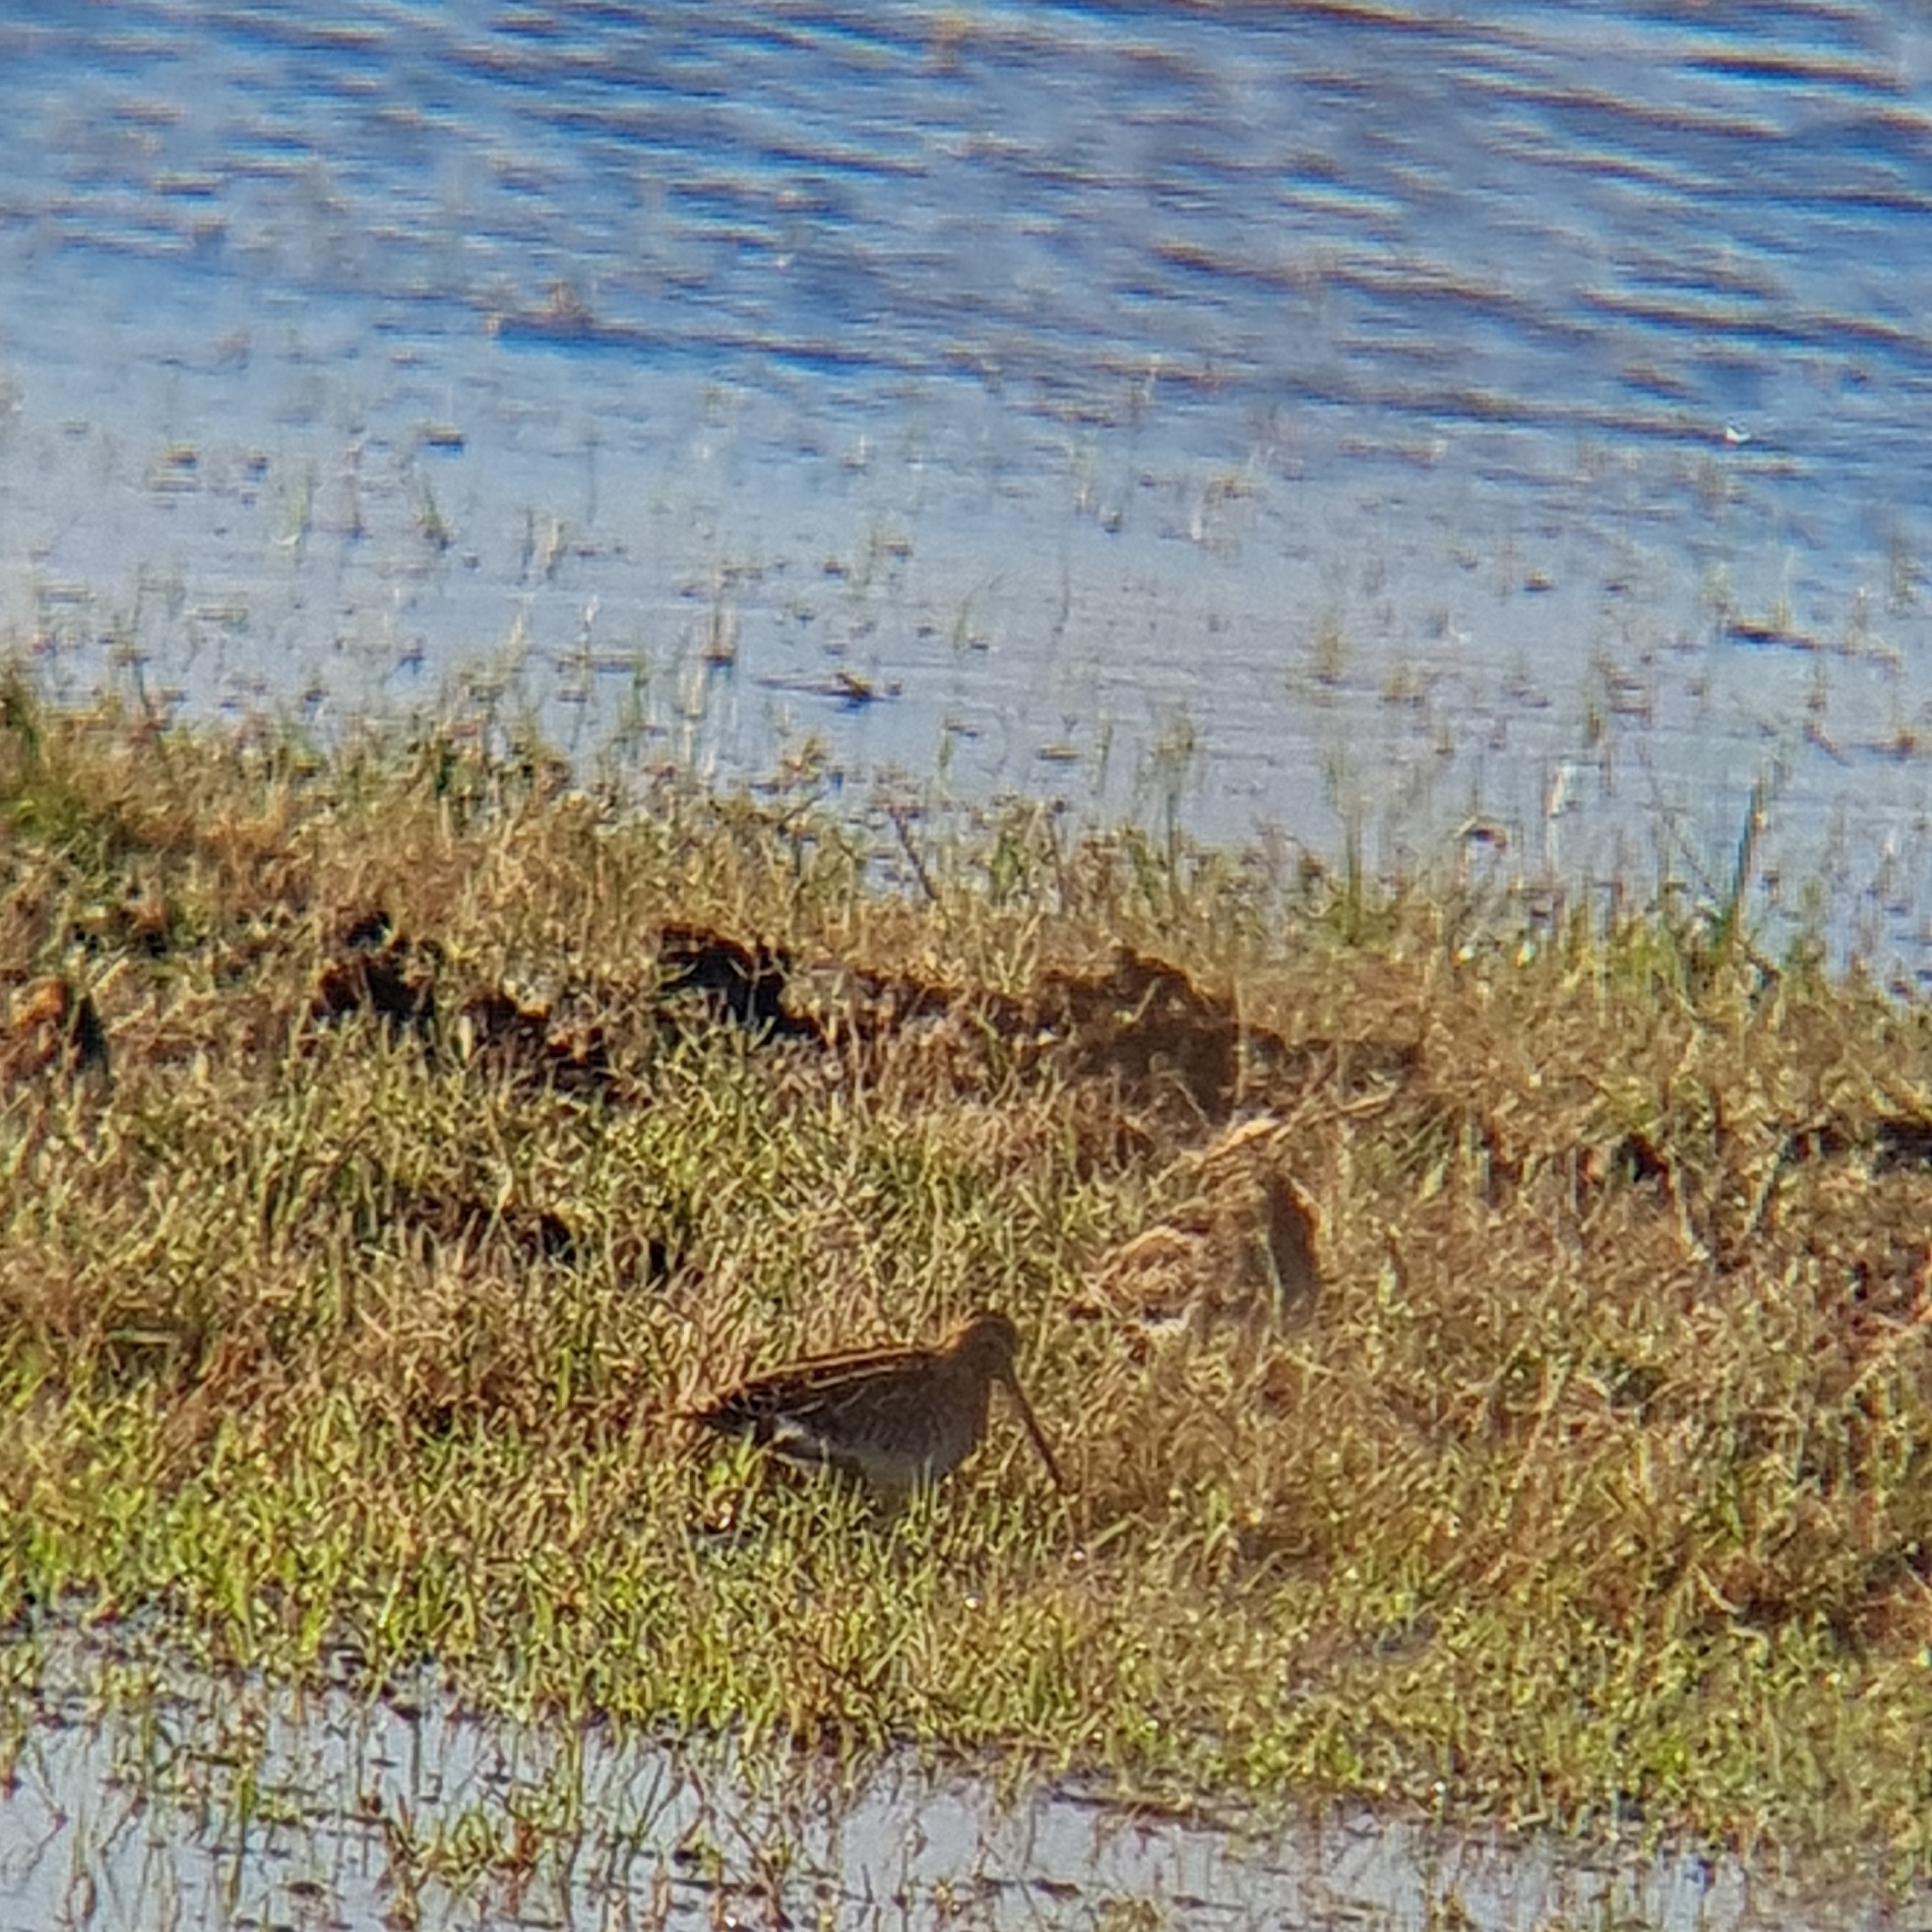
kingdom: Animalia
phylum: Chordata
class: Aves
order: Charadriiformes
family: Scolopacidae
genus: Gallinago
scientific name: Gallinago gallinago
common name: Common snipe
